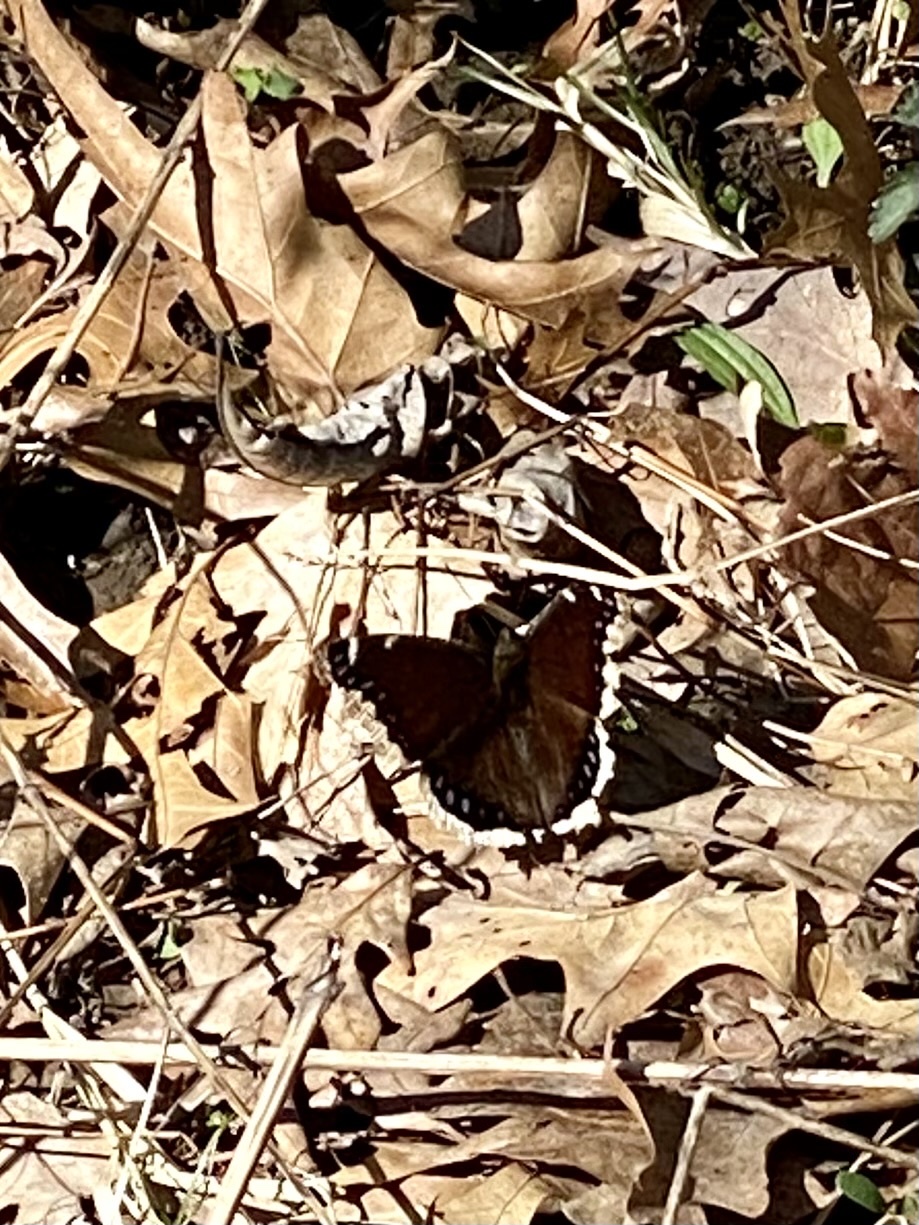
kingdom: Animalia
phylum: Arthropoda
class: Insecta
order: Lepidoptera
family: Nymphalidae
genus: Nymphalis
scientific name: Nymphalis antiopa
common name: Camberwell beauty
